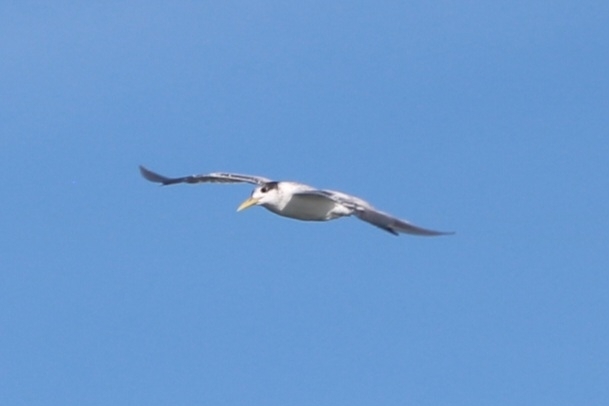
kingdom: Animalia
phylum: Chordata
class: Aves
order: Charadriiformes
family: Laridae
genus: Thalasseus
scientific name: Thalasseus bergii
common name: Greater crested tern
